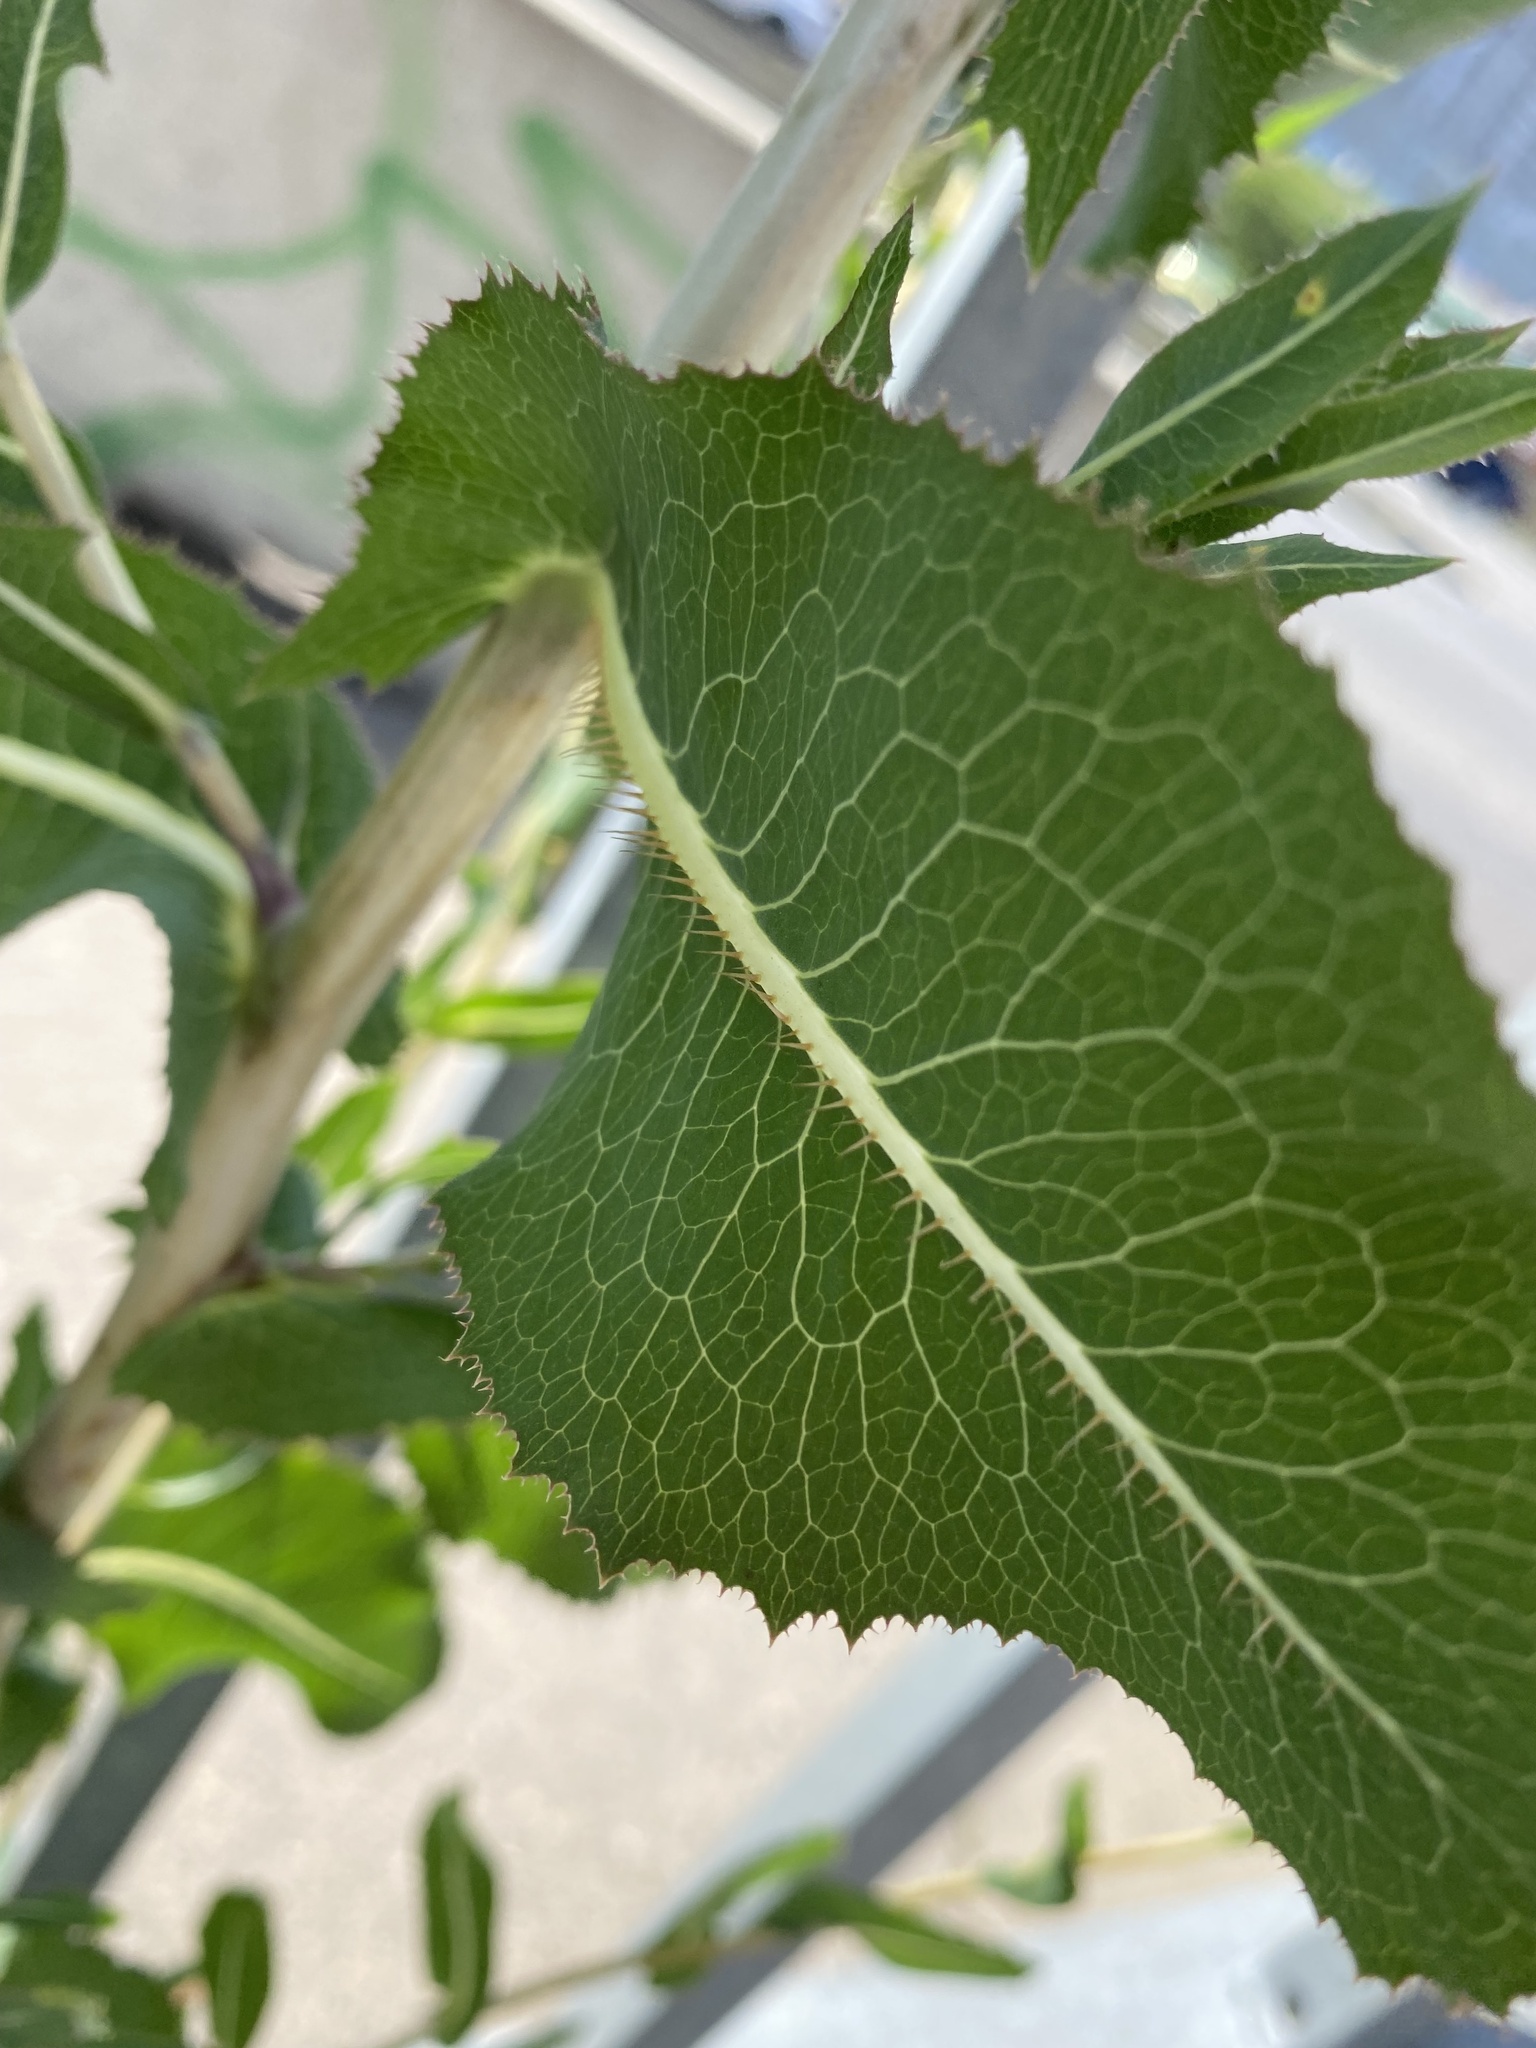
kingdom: Plantae
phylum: Tracheophyta
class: Magnoliopsida
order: Asterales
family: Asteraceae
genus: Lactuca
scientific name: Lactuca serriola
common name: Prickly lettuce
